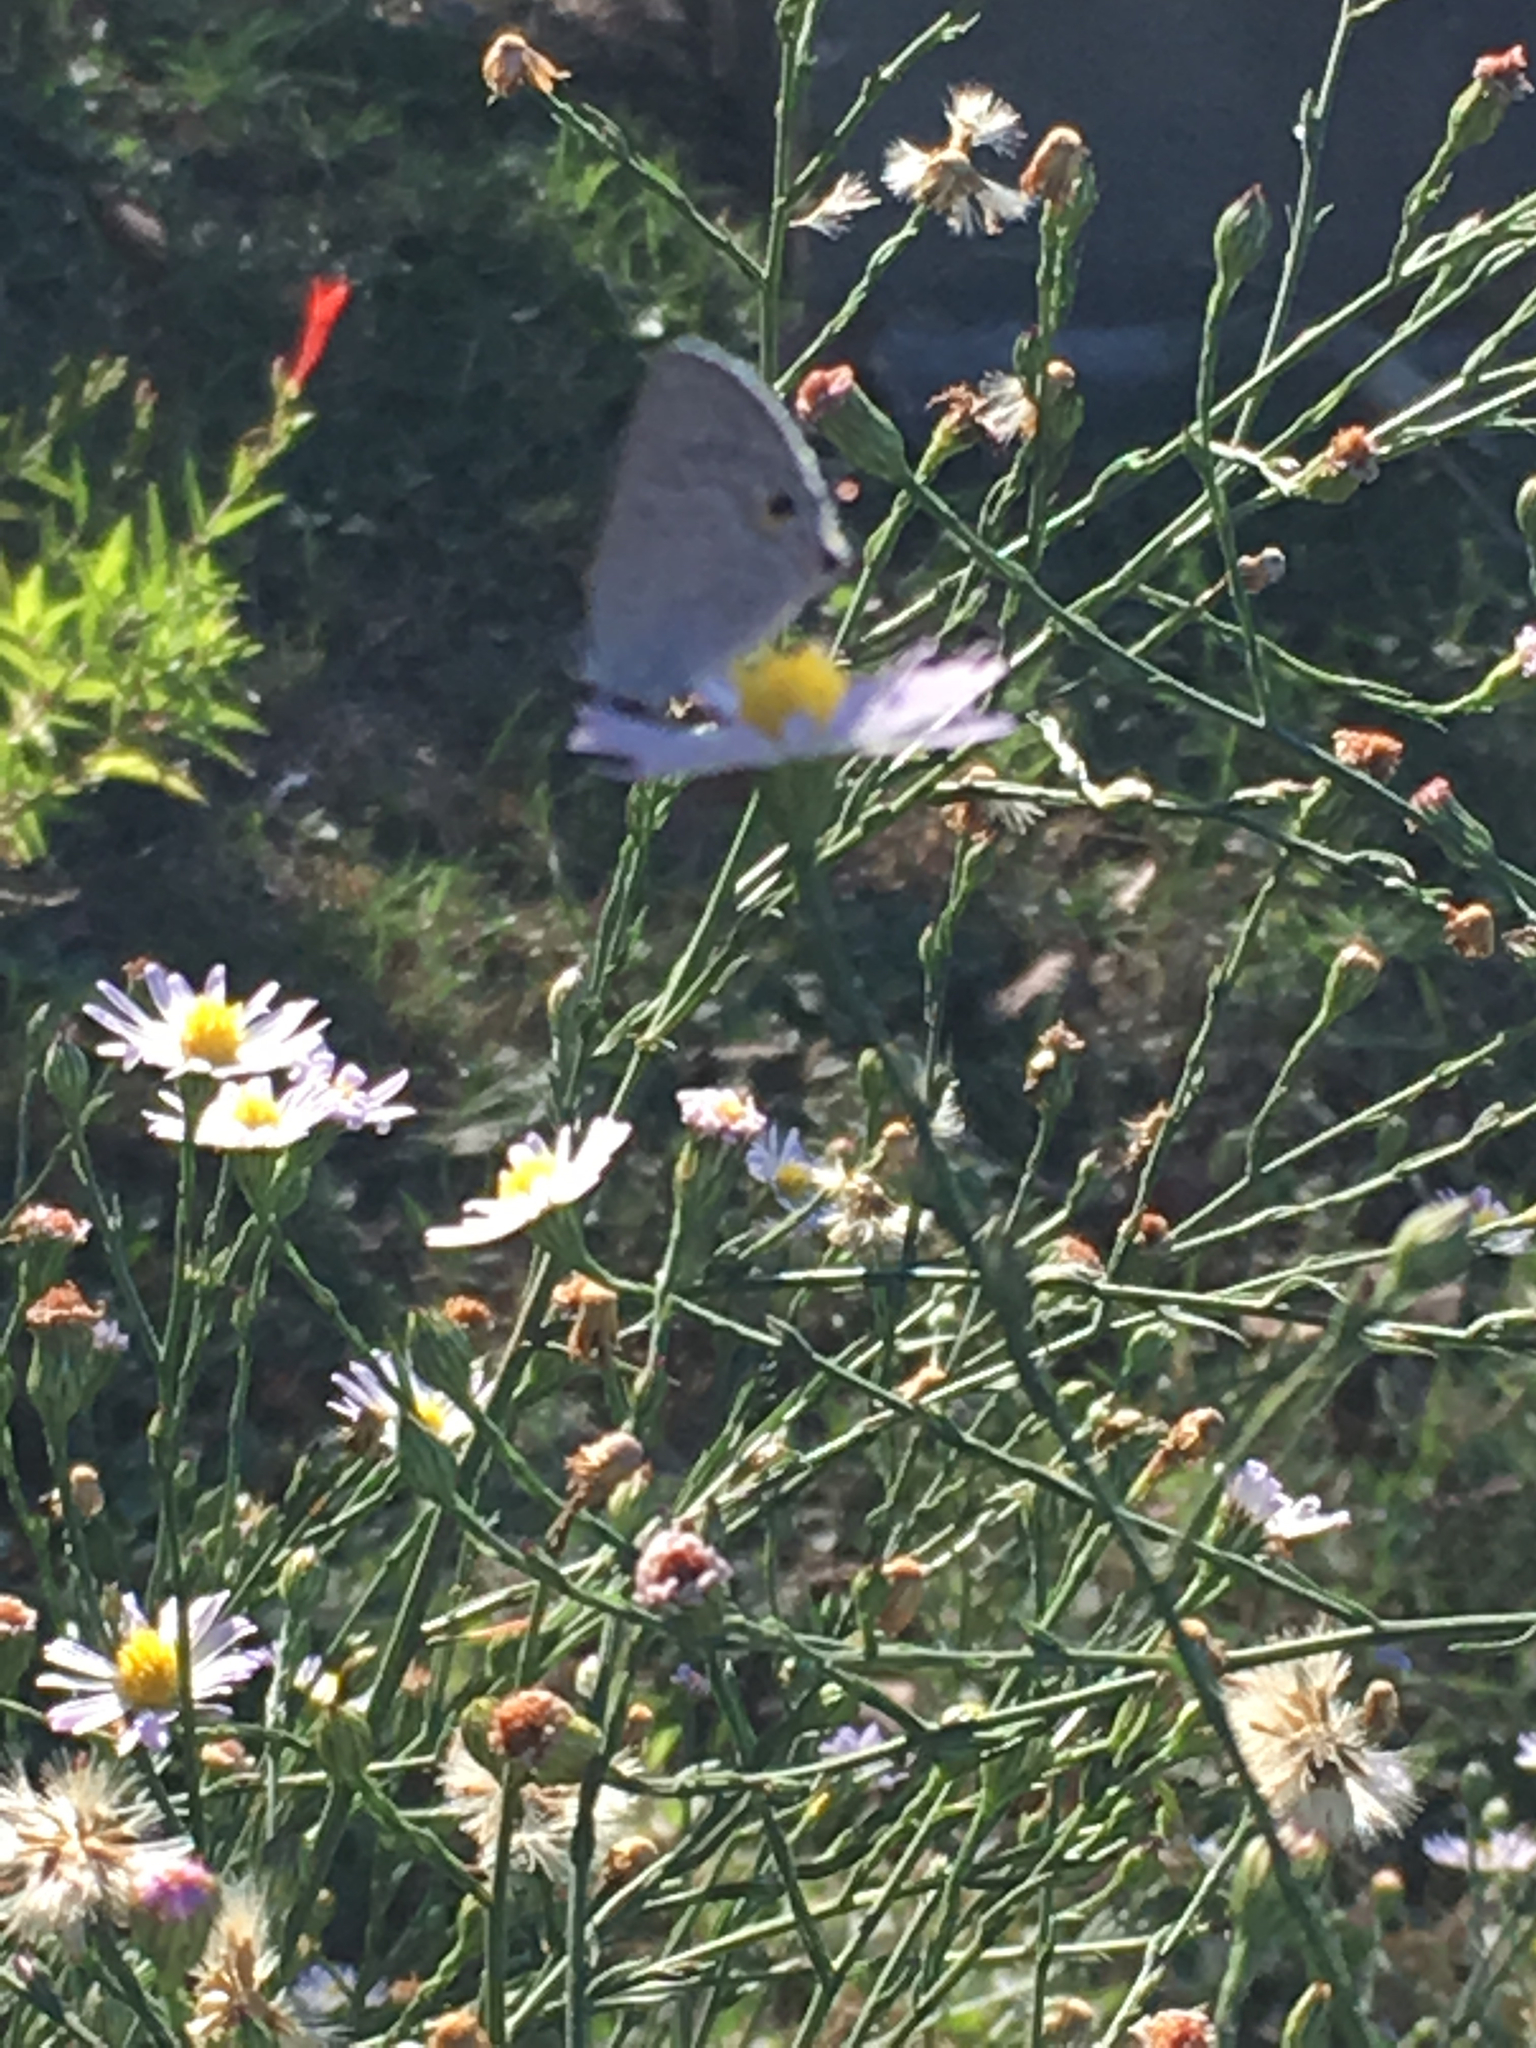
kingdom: Animalia
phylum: Arthropoda
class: Insecta
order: Lepidoptera
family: Lycaenidae
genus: Callicista
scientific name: Callicista columella
